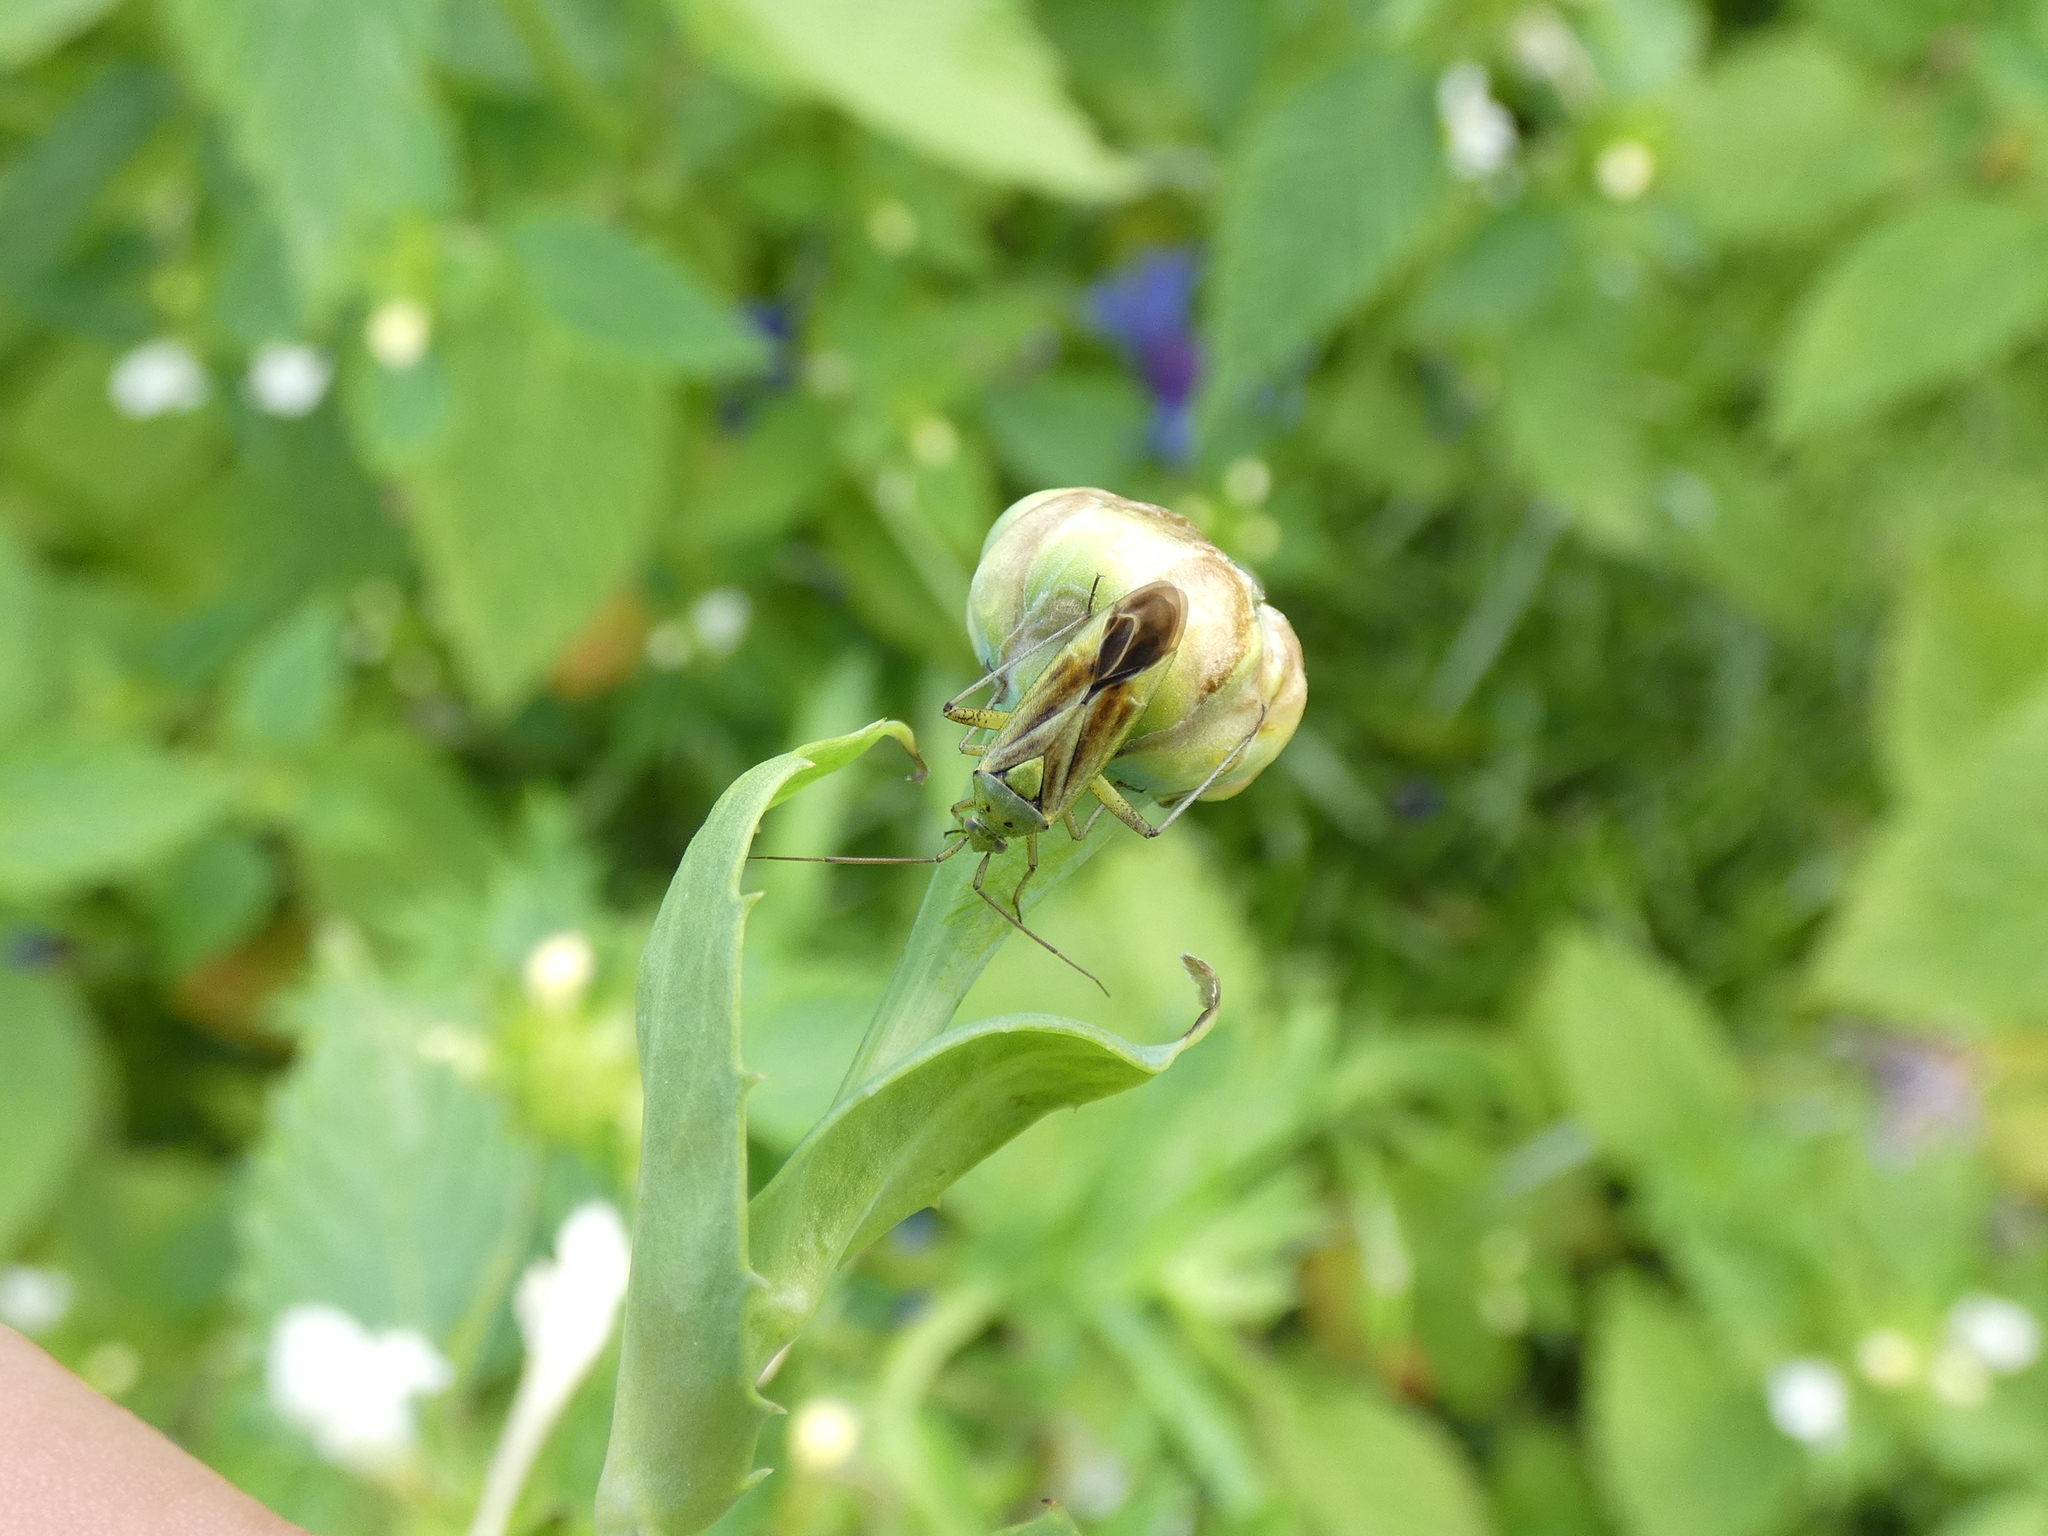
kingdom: Animalia
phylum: Arthropoda
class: Insecta
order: Hemiptera
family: Miridae
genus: Closterotomus
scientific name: Closterotomus norvegicus
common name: Plant bug
